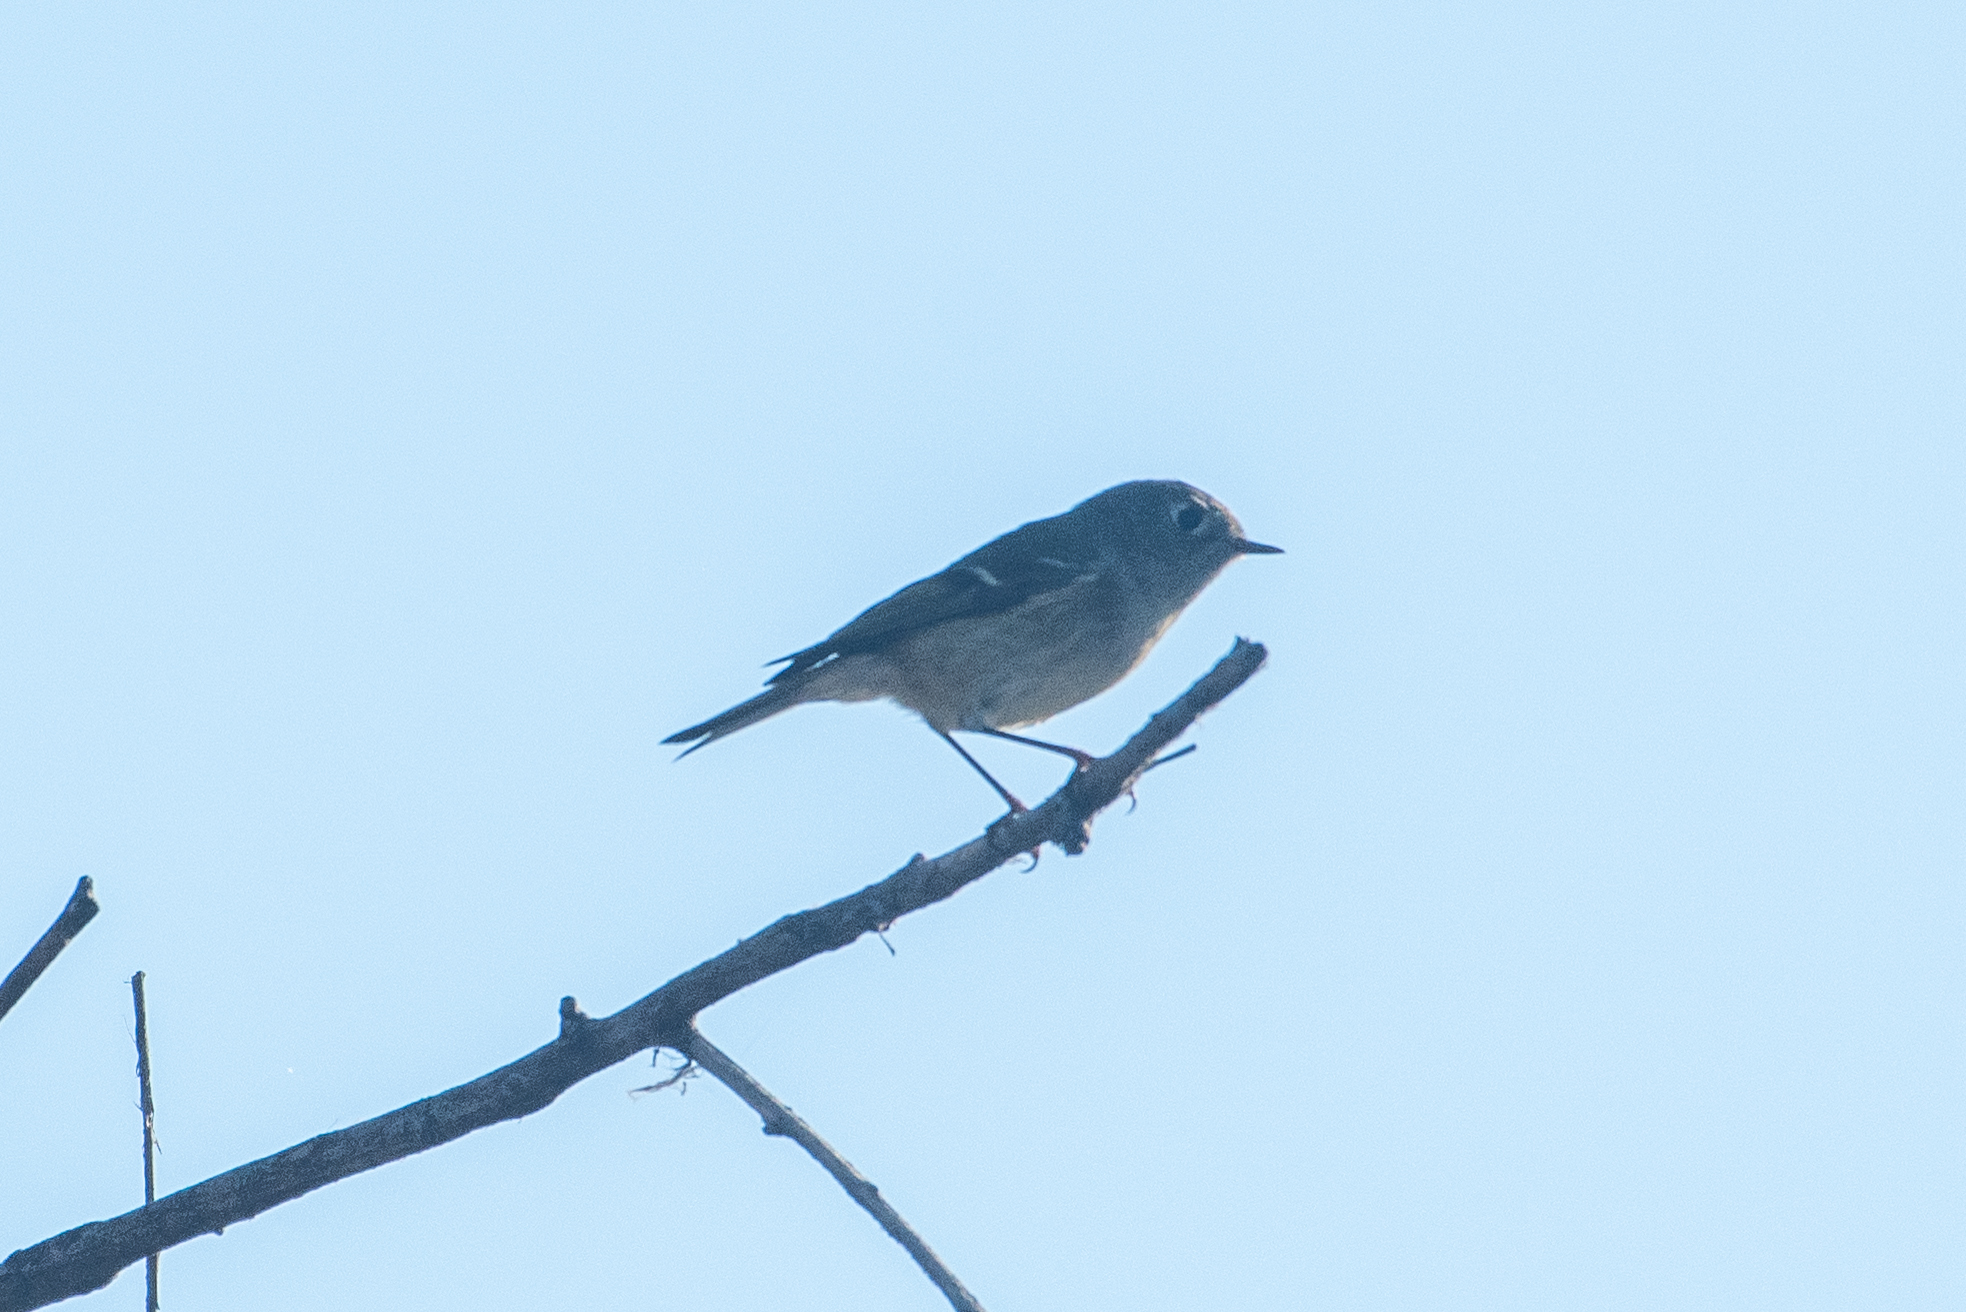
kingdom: Animalia
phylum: Chordata
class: Aves
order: Passeriformes
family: Regulidae
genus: Regulus
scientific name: Regulus calendula
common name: Ruby-crowned kinglet
